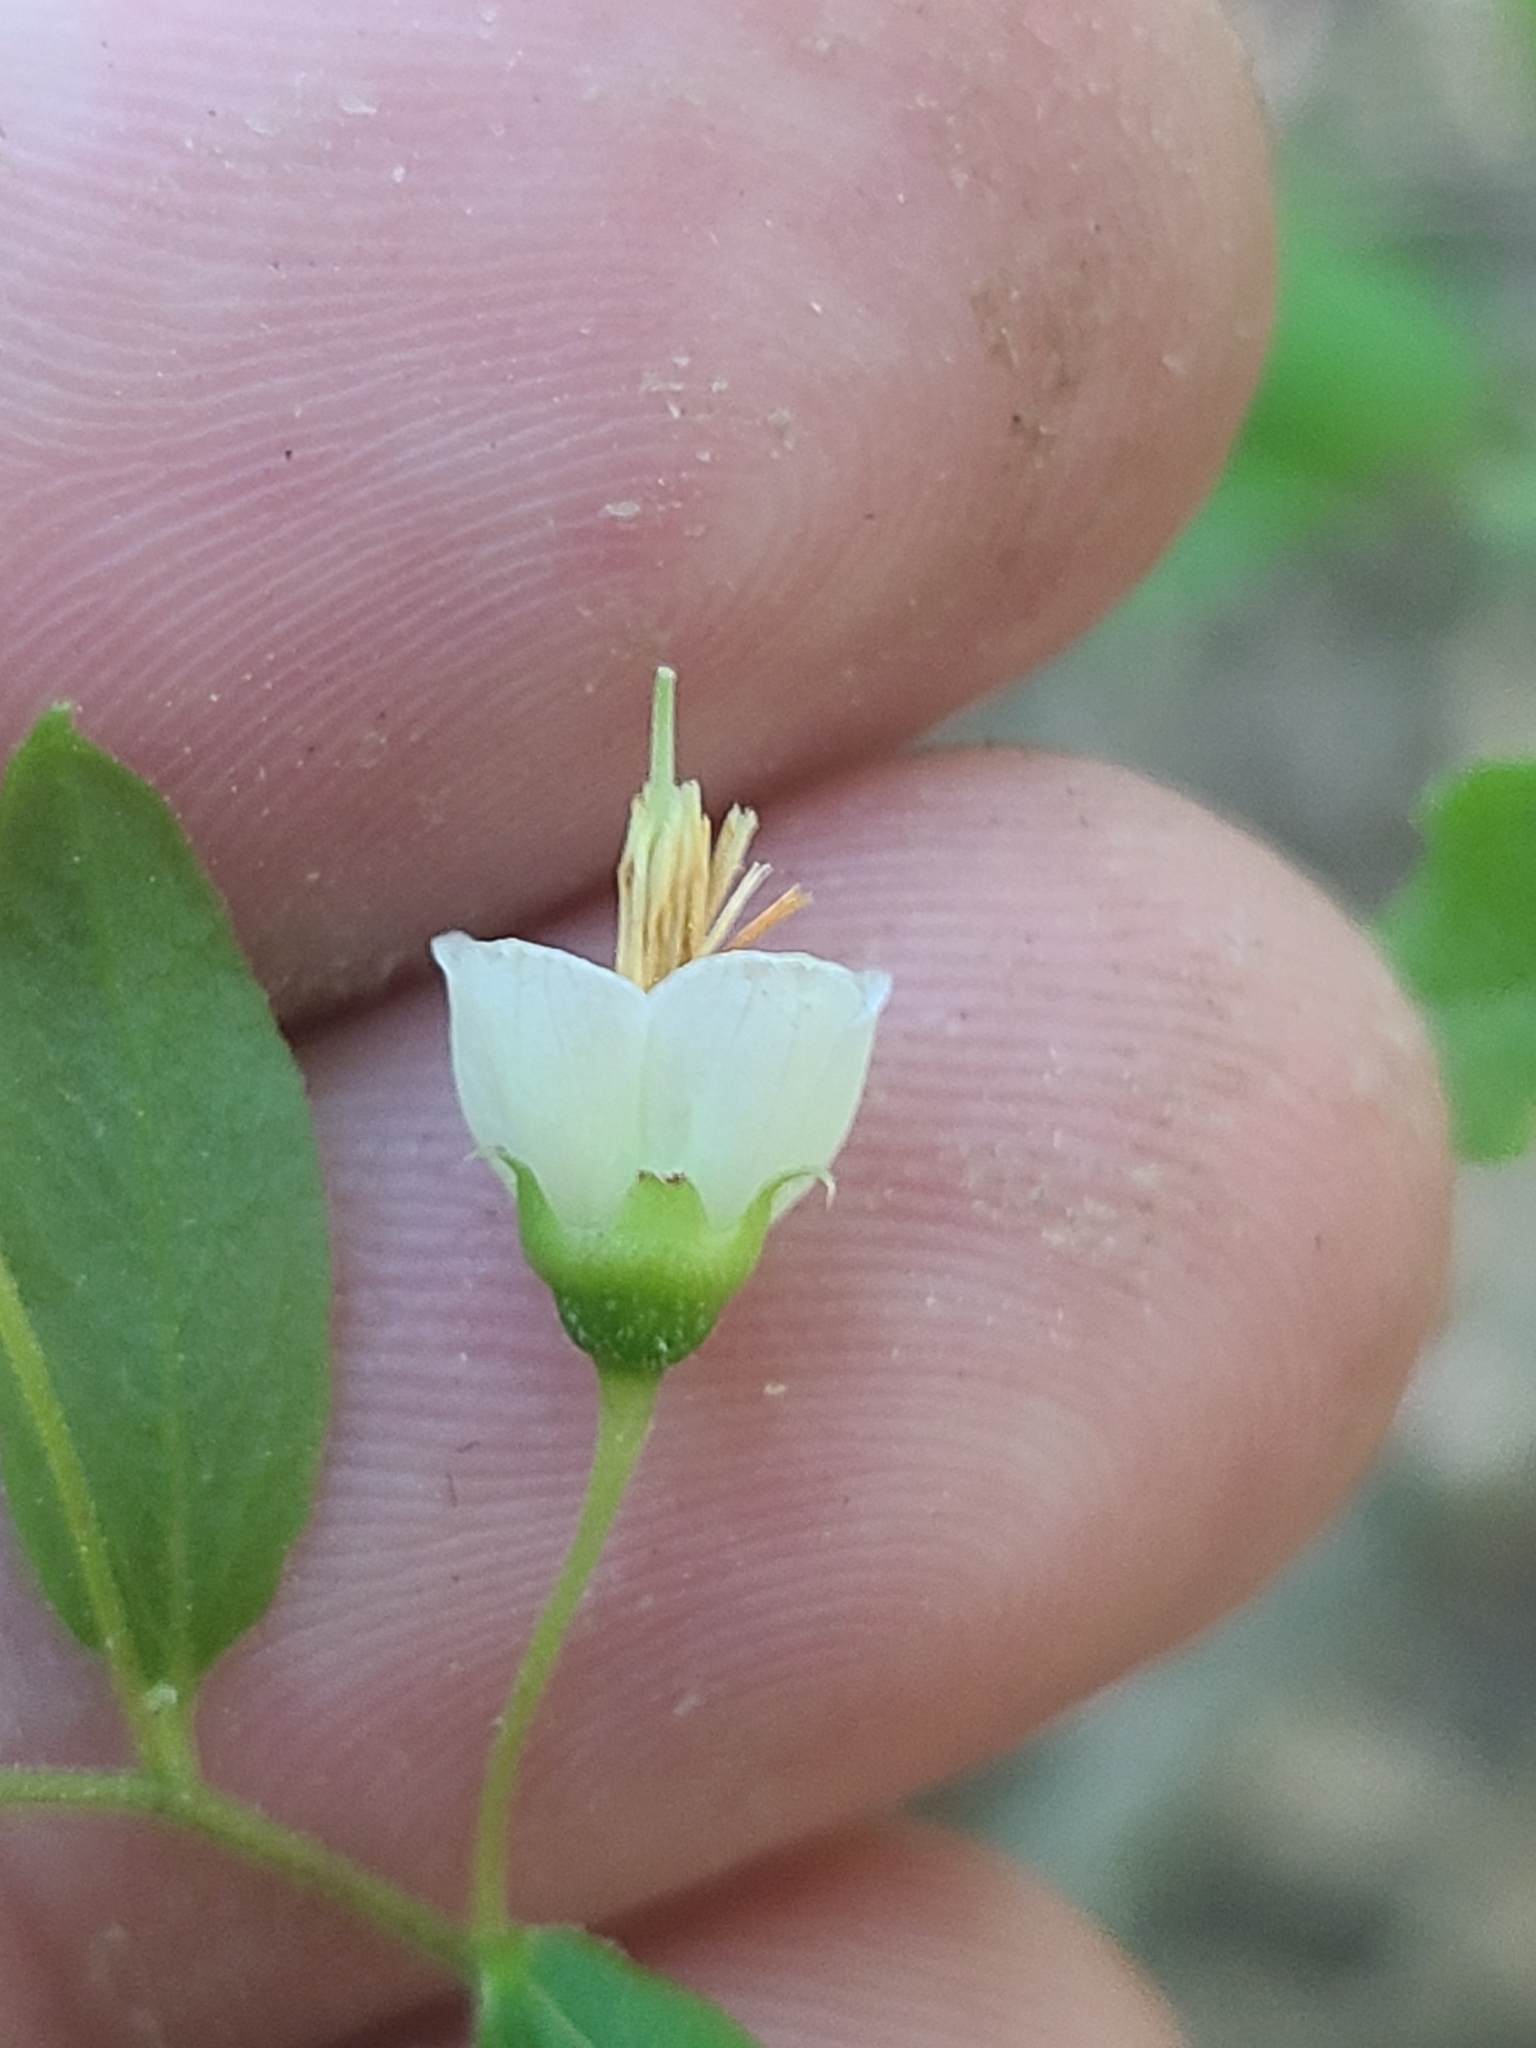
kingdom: Plantae
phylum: Tracheophyta
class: Magnoliopsida
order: Ericales
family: Ericaceae
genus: Vaccinium
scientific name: Vaccinium stamineum
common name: Deerberry
